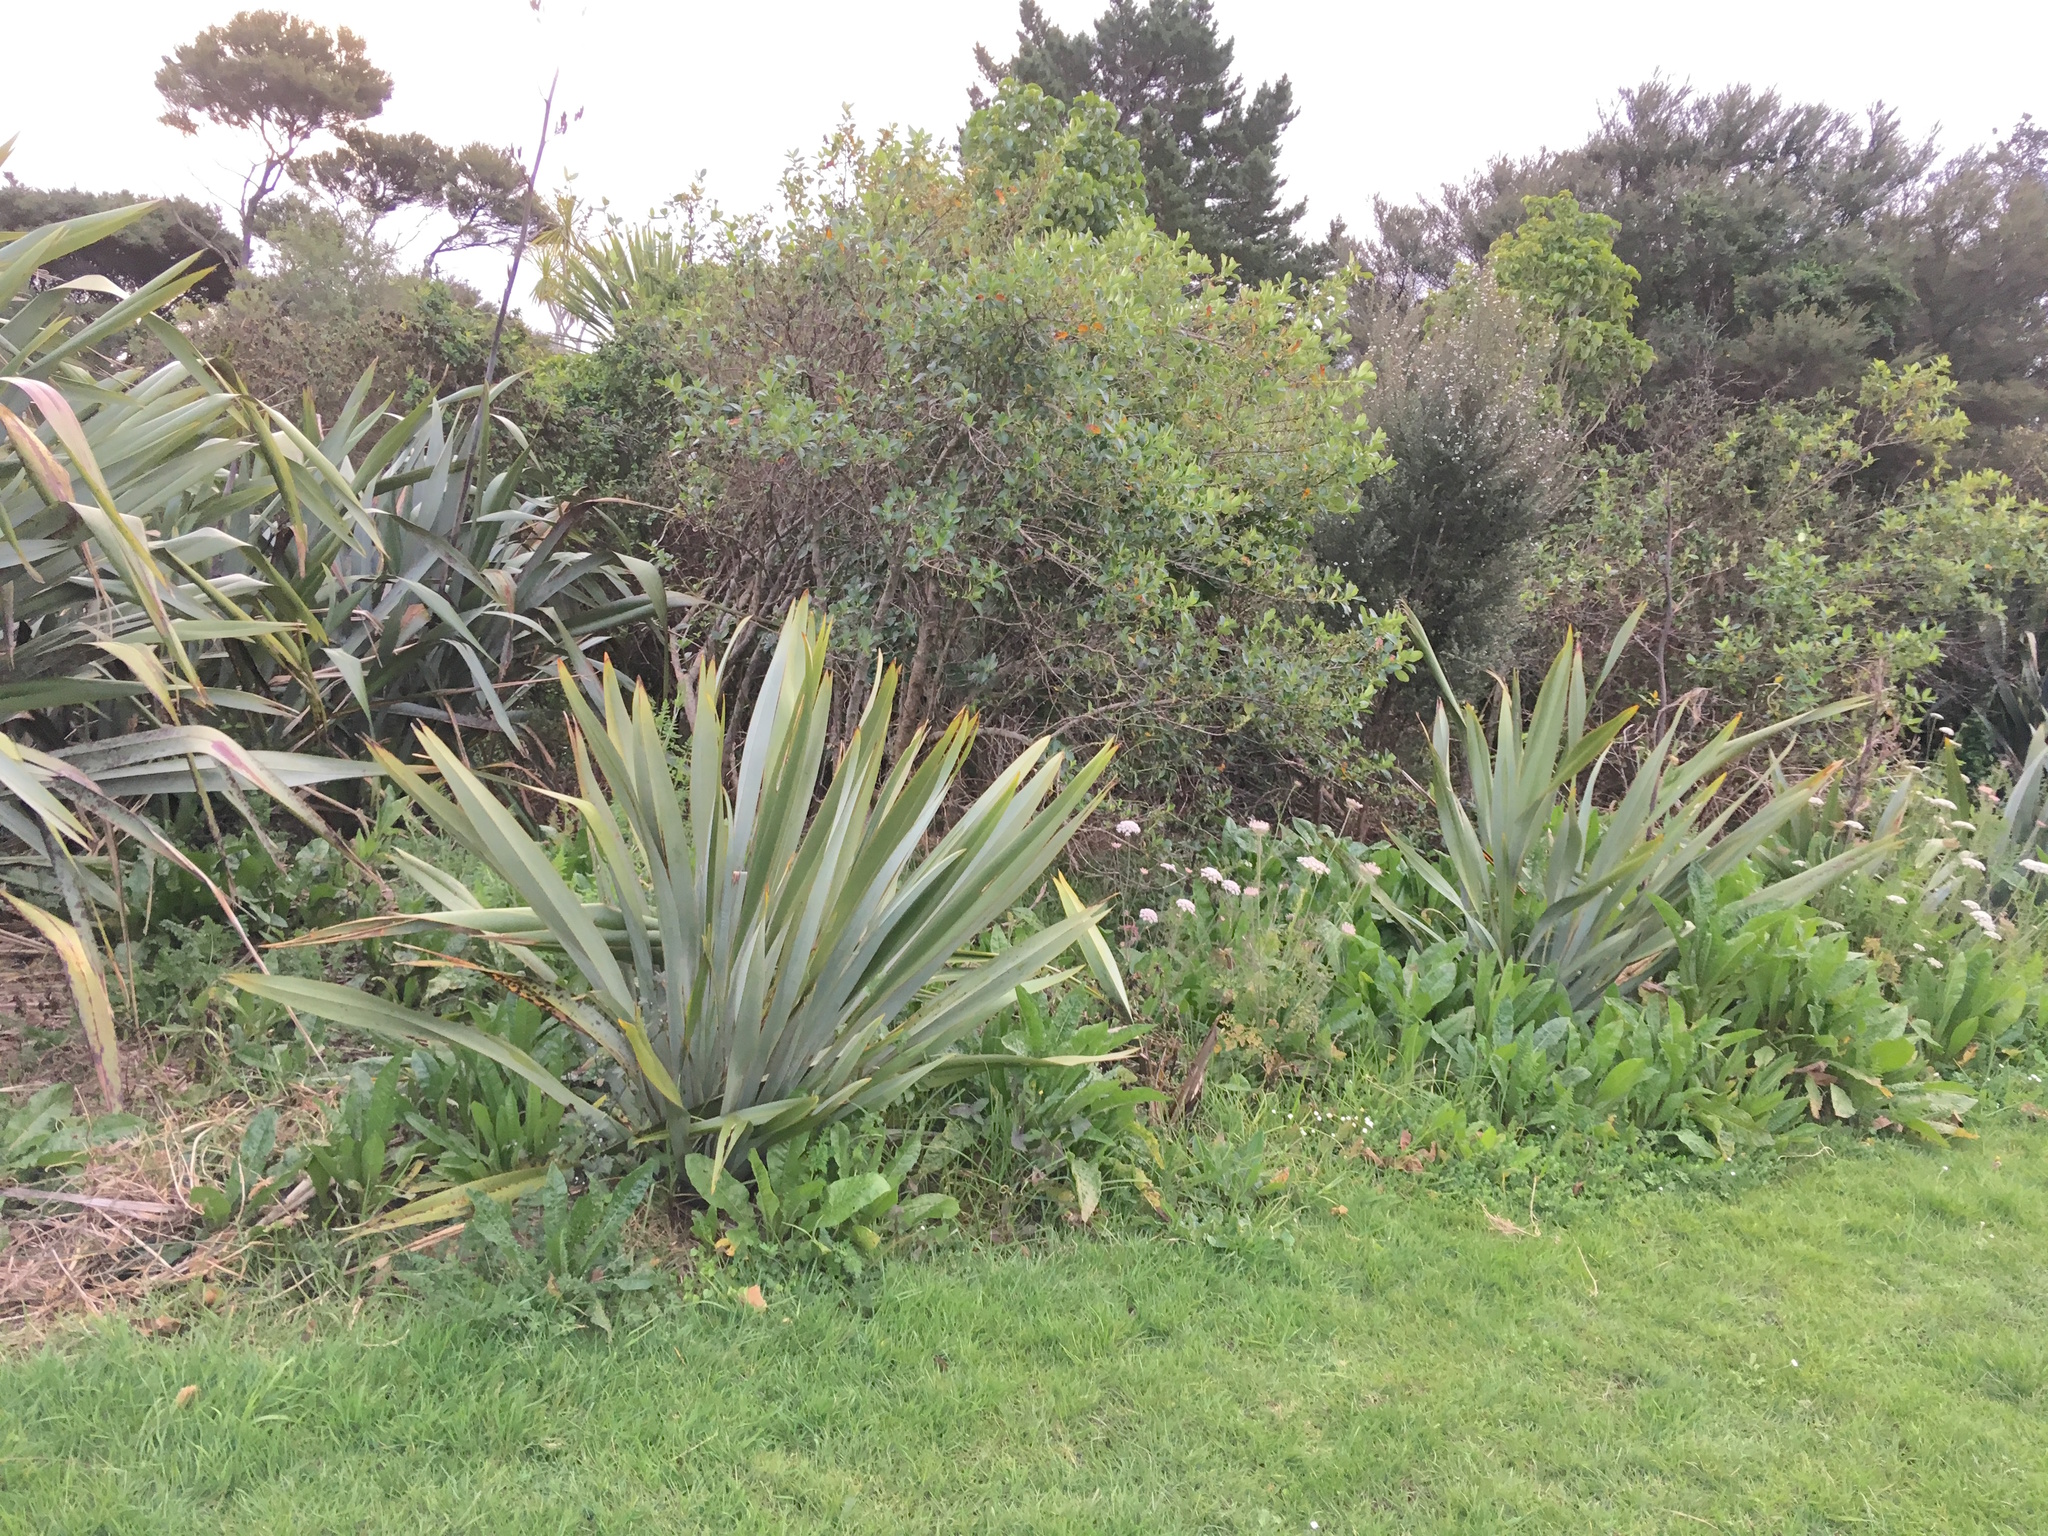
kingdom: Plantae
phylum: Tracheophyta
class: Liliopsida
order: Poales
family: Poaceae
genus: Cenchrus
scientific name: Cenchrus clandestinus
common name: Kikuyugrass
